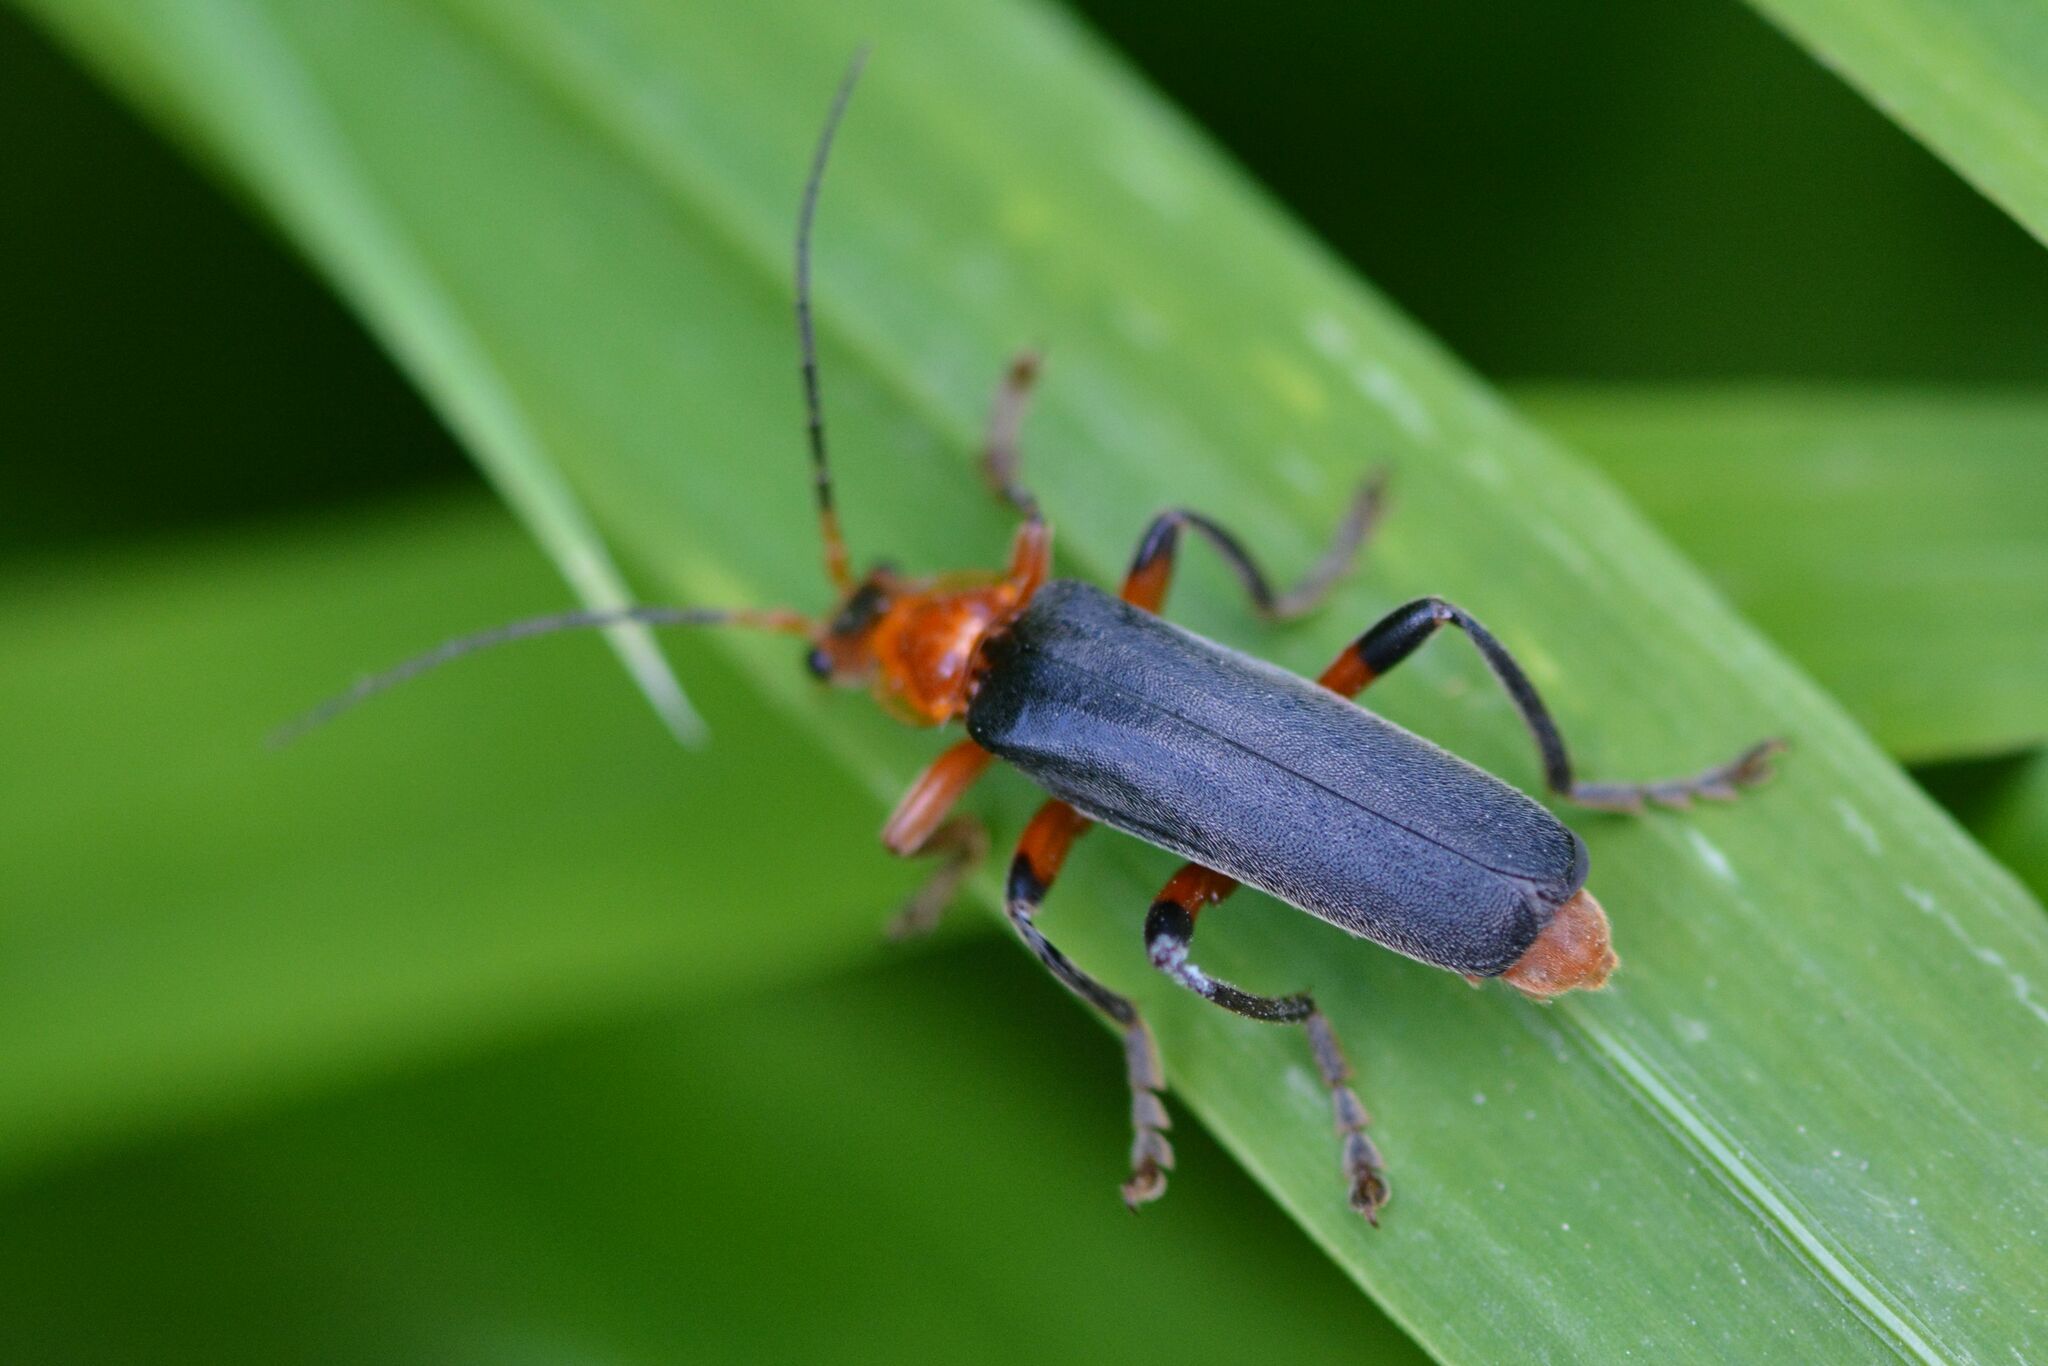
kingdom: Animalia
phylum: Arthropoda
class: Insecta
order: Coleoptera
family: Cantharidae
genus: Cantharis
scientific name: Cantharis livida
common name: Livid soldier beetle
